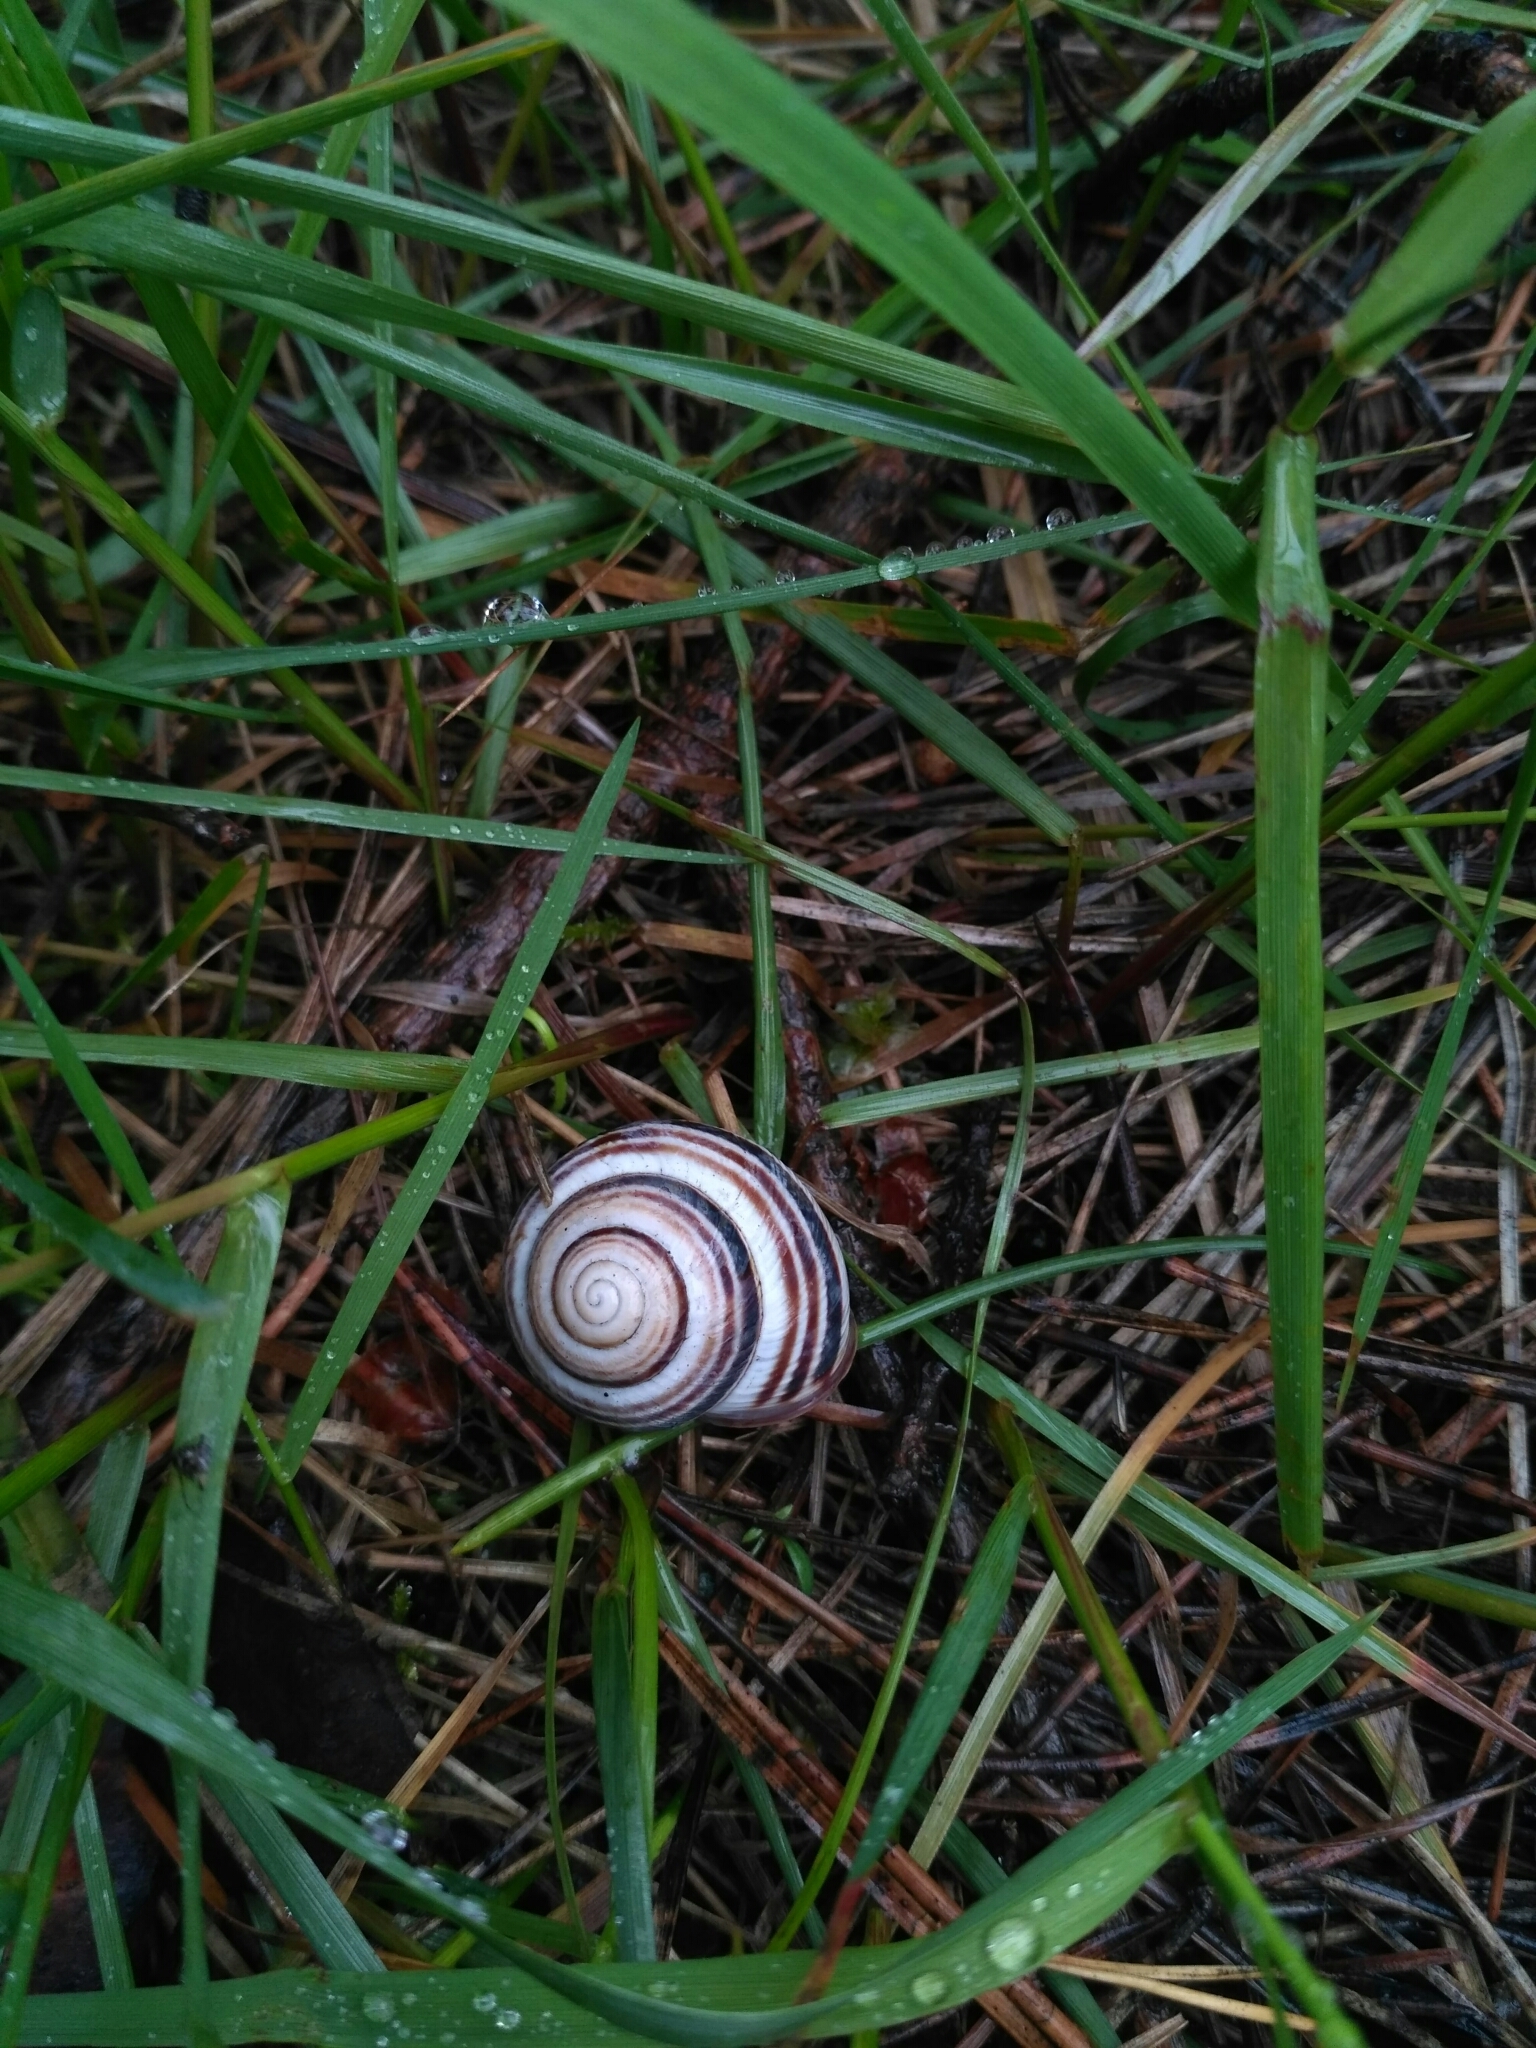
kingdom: Animalia
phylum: Mollusca
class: Gastropoda
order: Stylommatophora
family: Helicidae
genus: Caucasotachea
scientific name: Caucasotachea vindobonensis
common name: European helicid land snail
